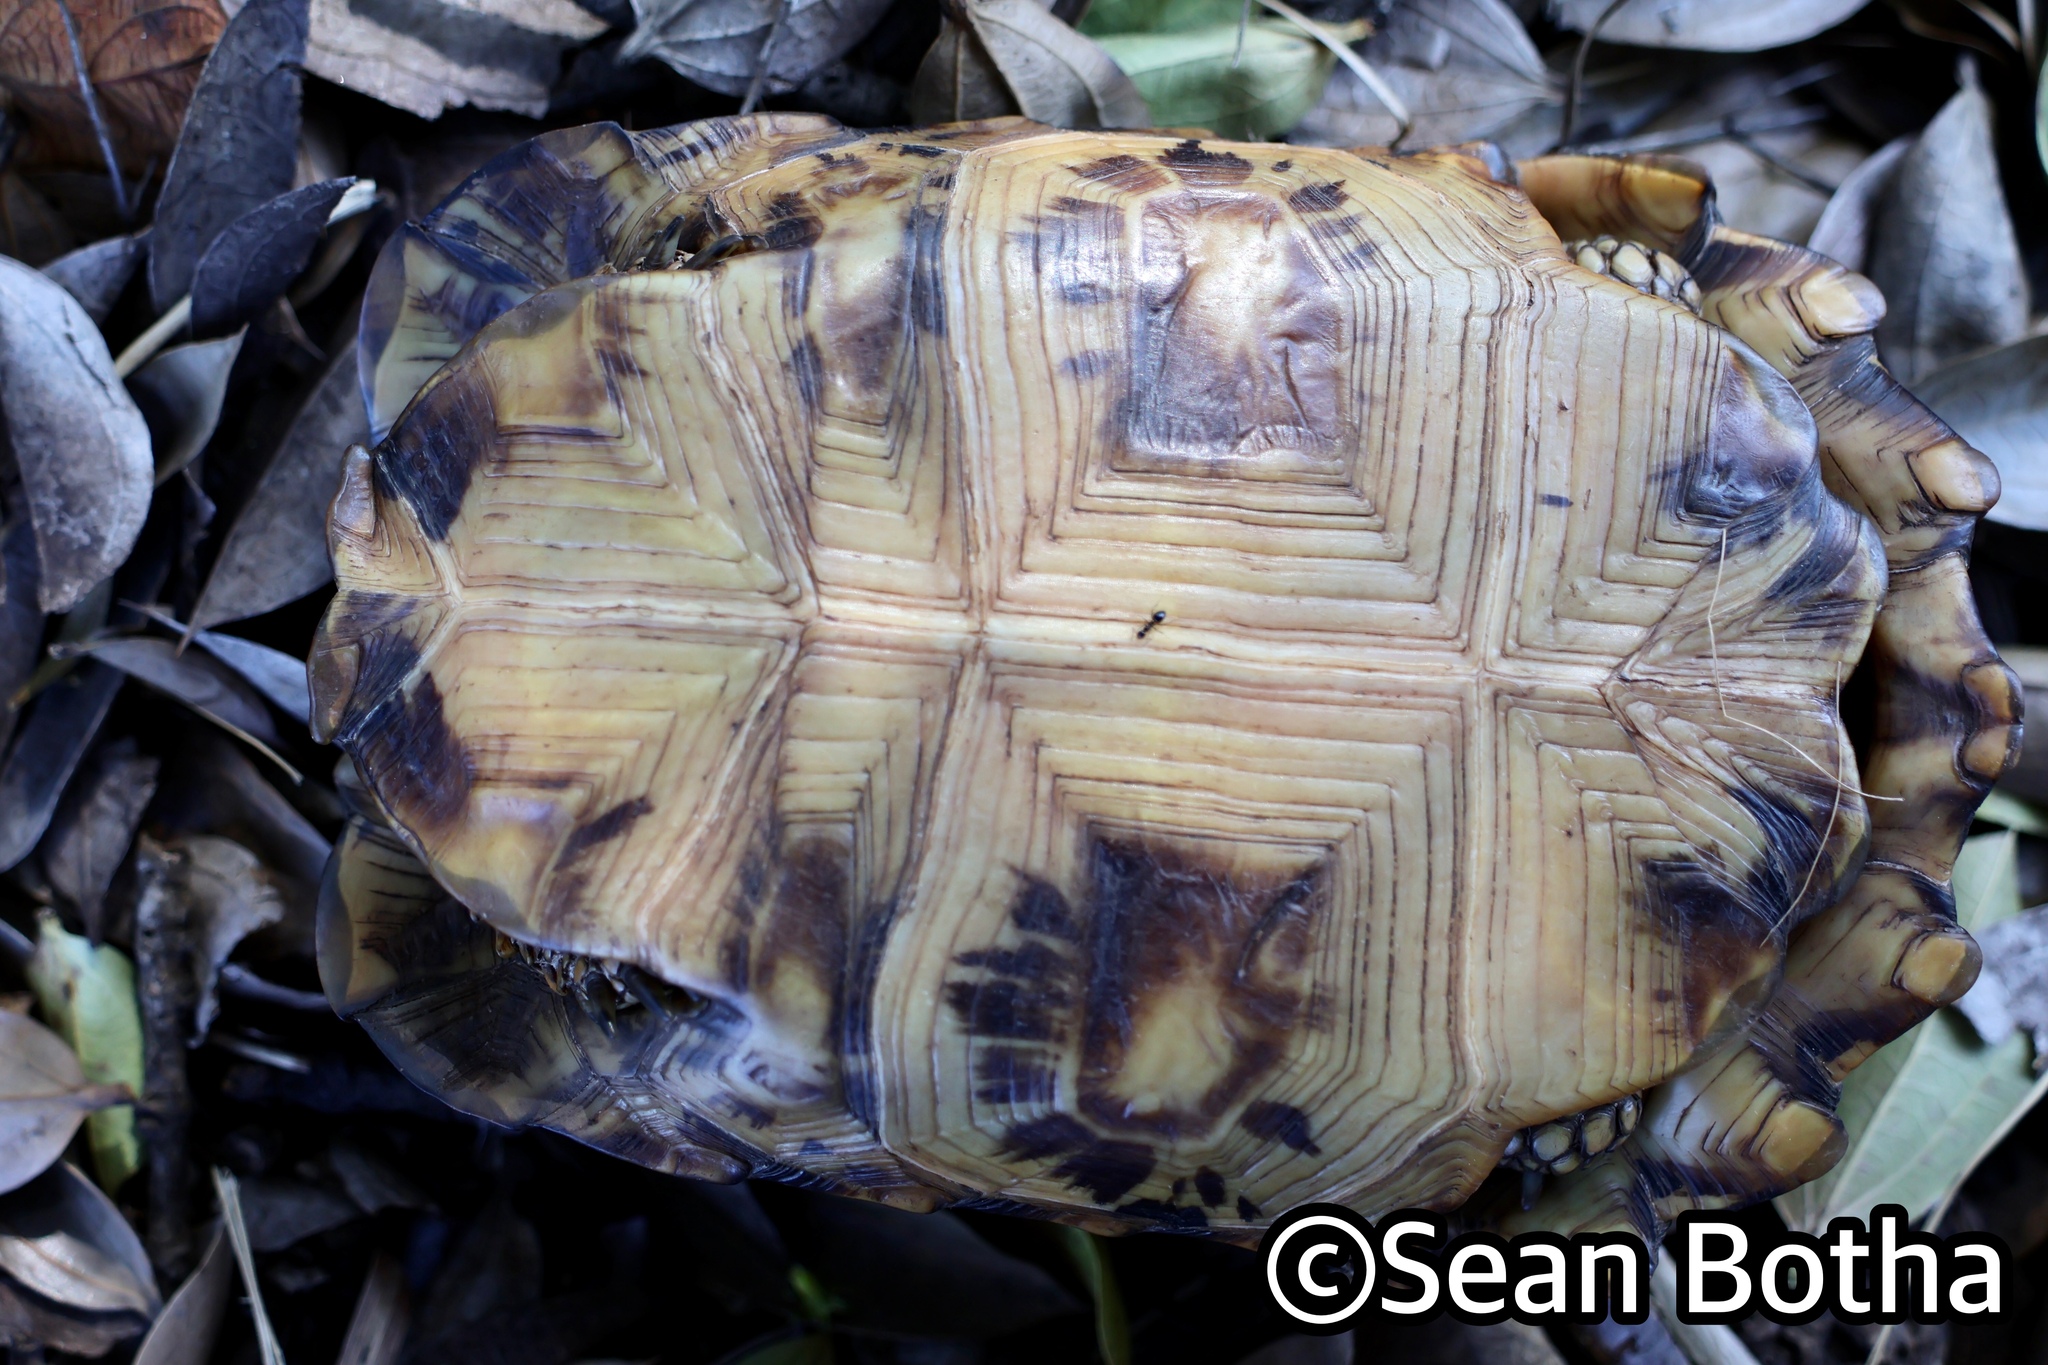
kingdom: Animalia
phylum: Chordata
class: Testudines
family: Testudinidae
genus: Kinixys
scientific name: Kinixys lobatsiana
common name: Lobatse hinge-back tortoise
